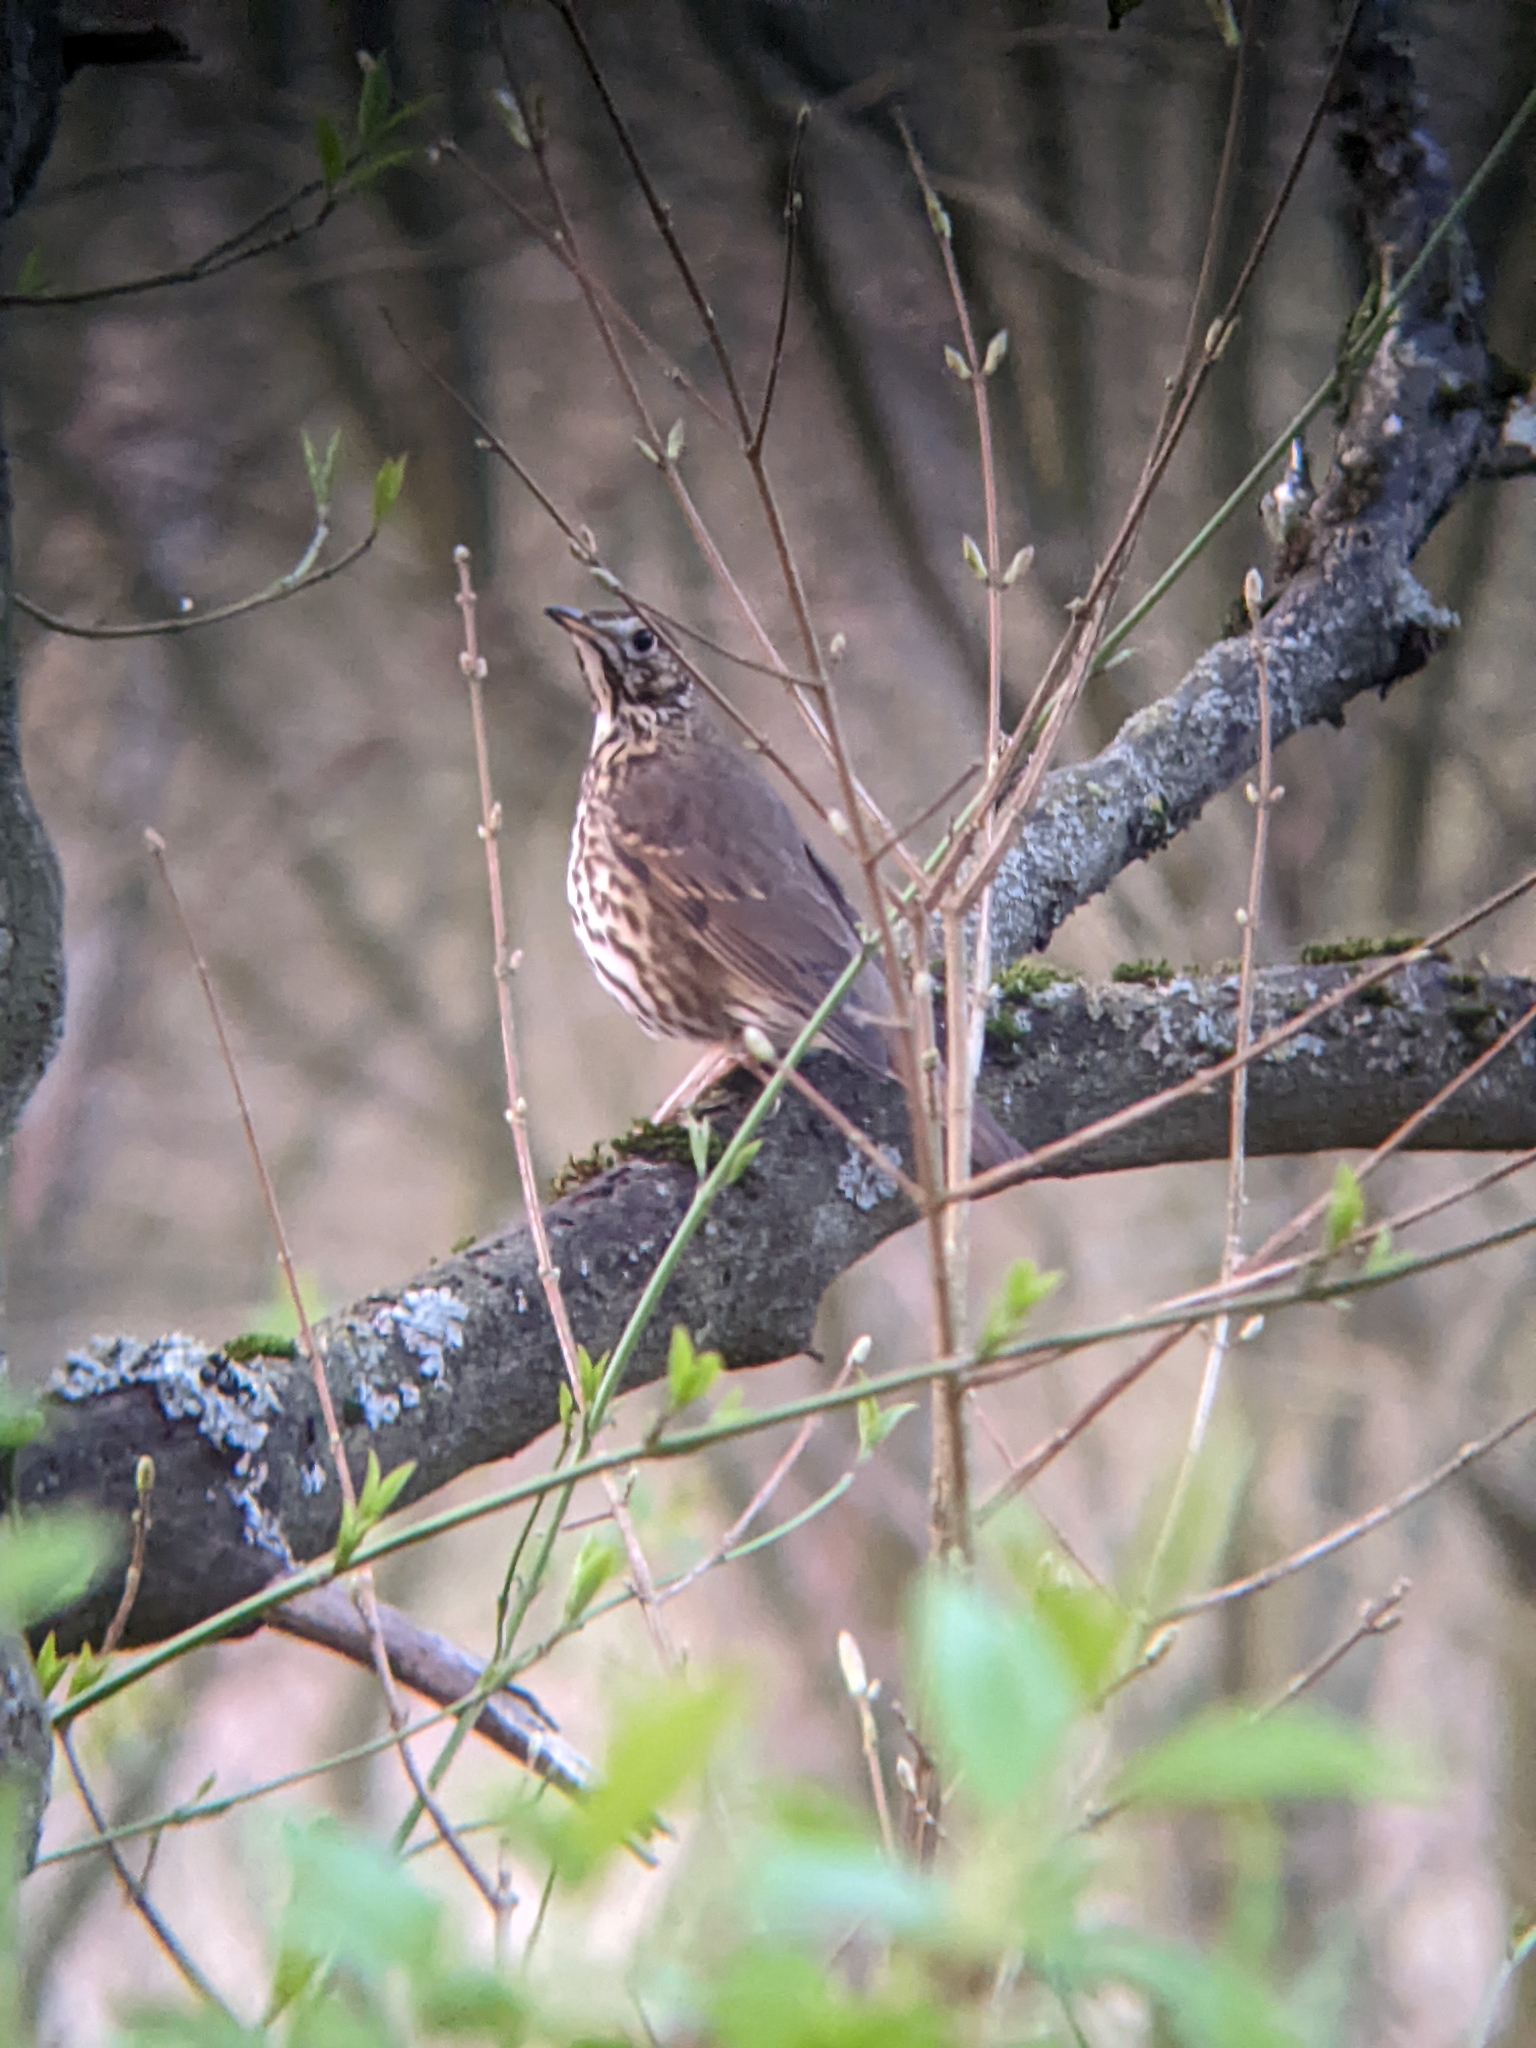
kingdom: Animalia
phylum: Chordata
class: Aves
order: Passeriformes
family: Turdidae
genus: Turdus
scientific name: Turdus philomelos
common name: Song thrush
